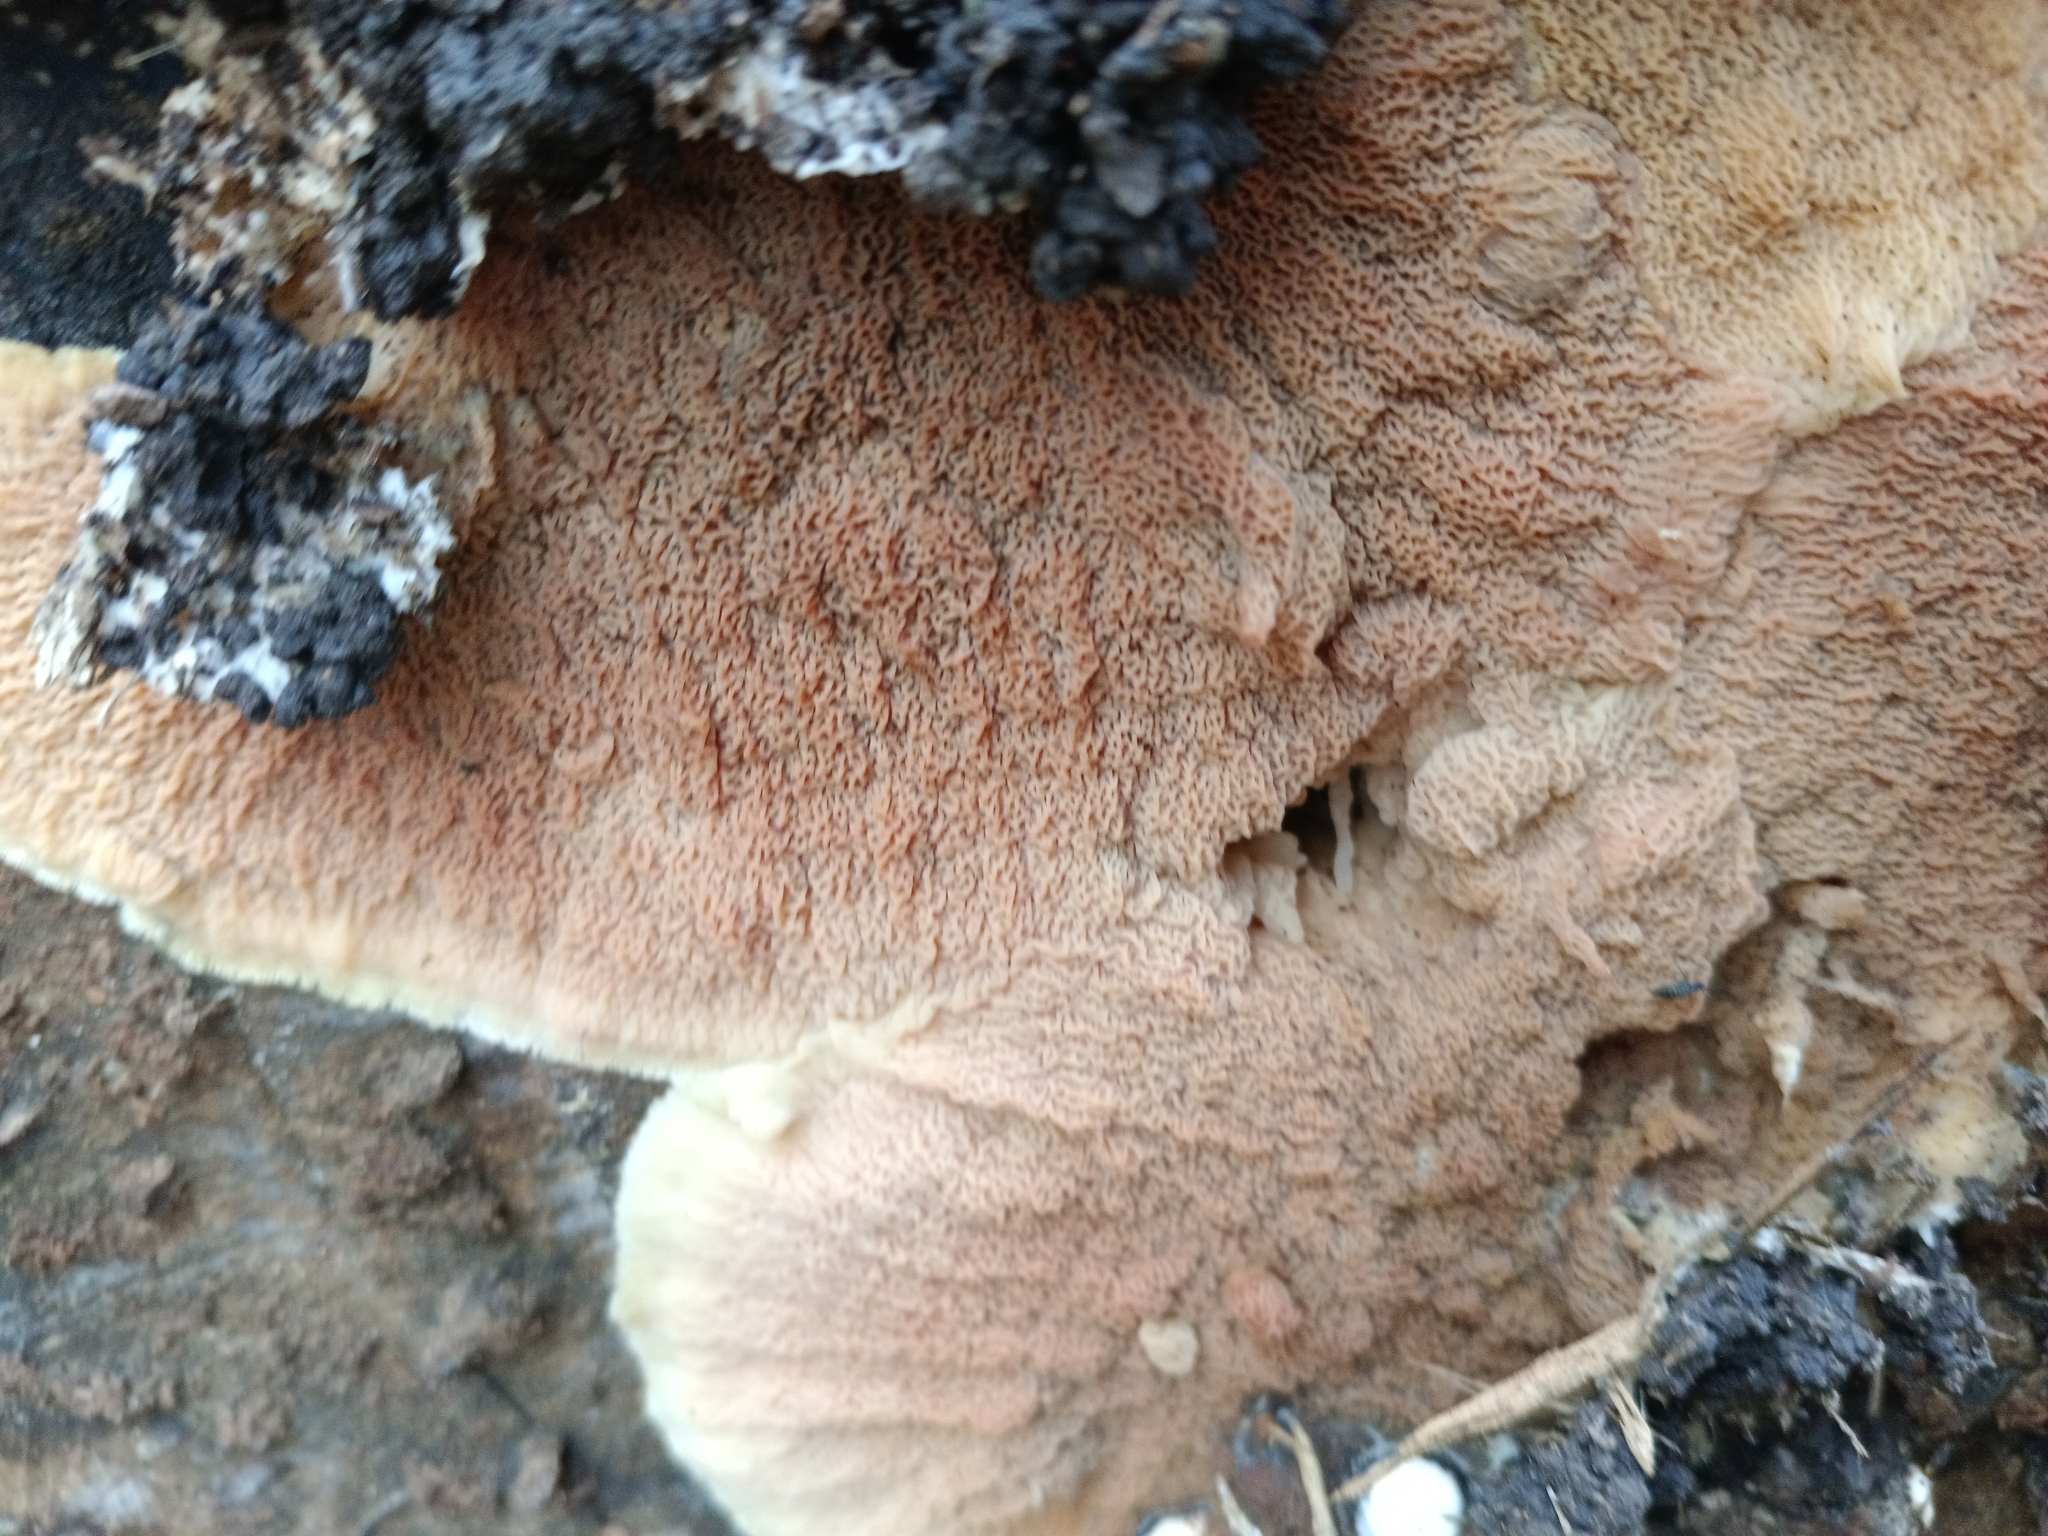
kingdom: Fungi
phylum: Basidiomycota
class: Agaricomycetes
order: Polyporales
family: Meruliaceae
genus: Phlebia
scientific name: Phlebia tremellosa
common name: Jelly rot
